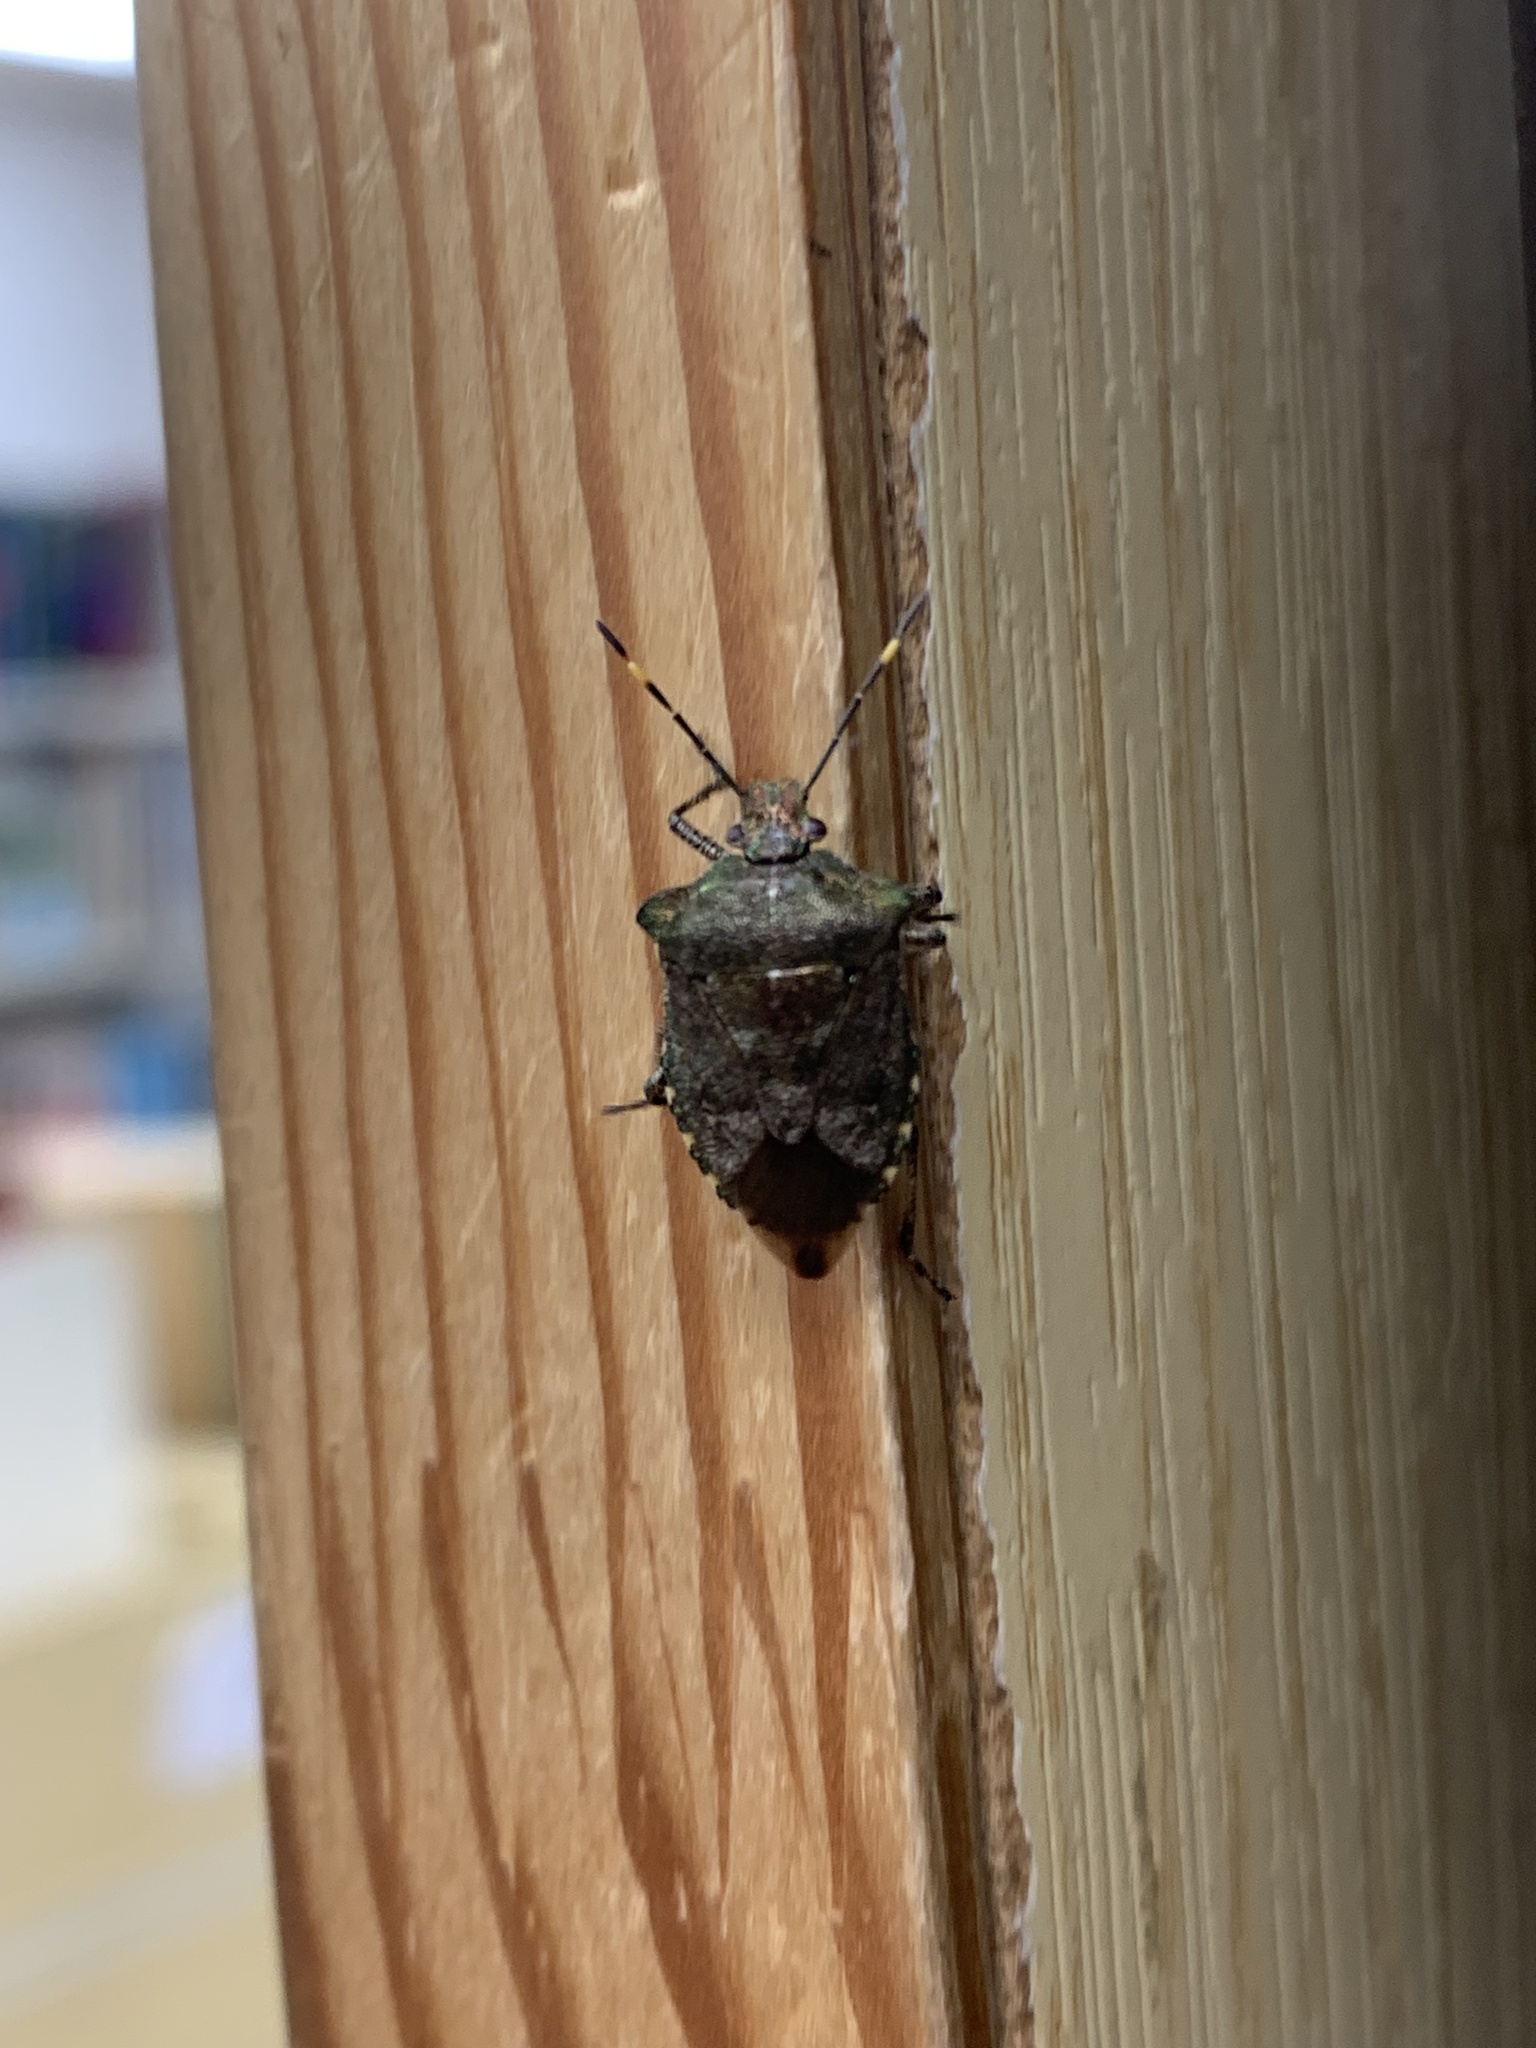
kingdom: Animalia
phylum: Arthropoda
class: Insecta
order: Hemiptera
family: Pentatomidae
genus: Troilus
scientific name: Troilus luridus
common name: Bronze shieldbug
